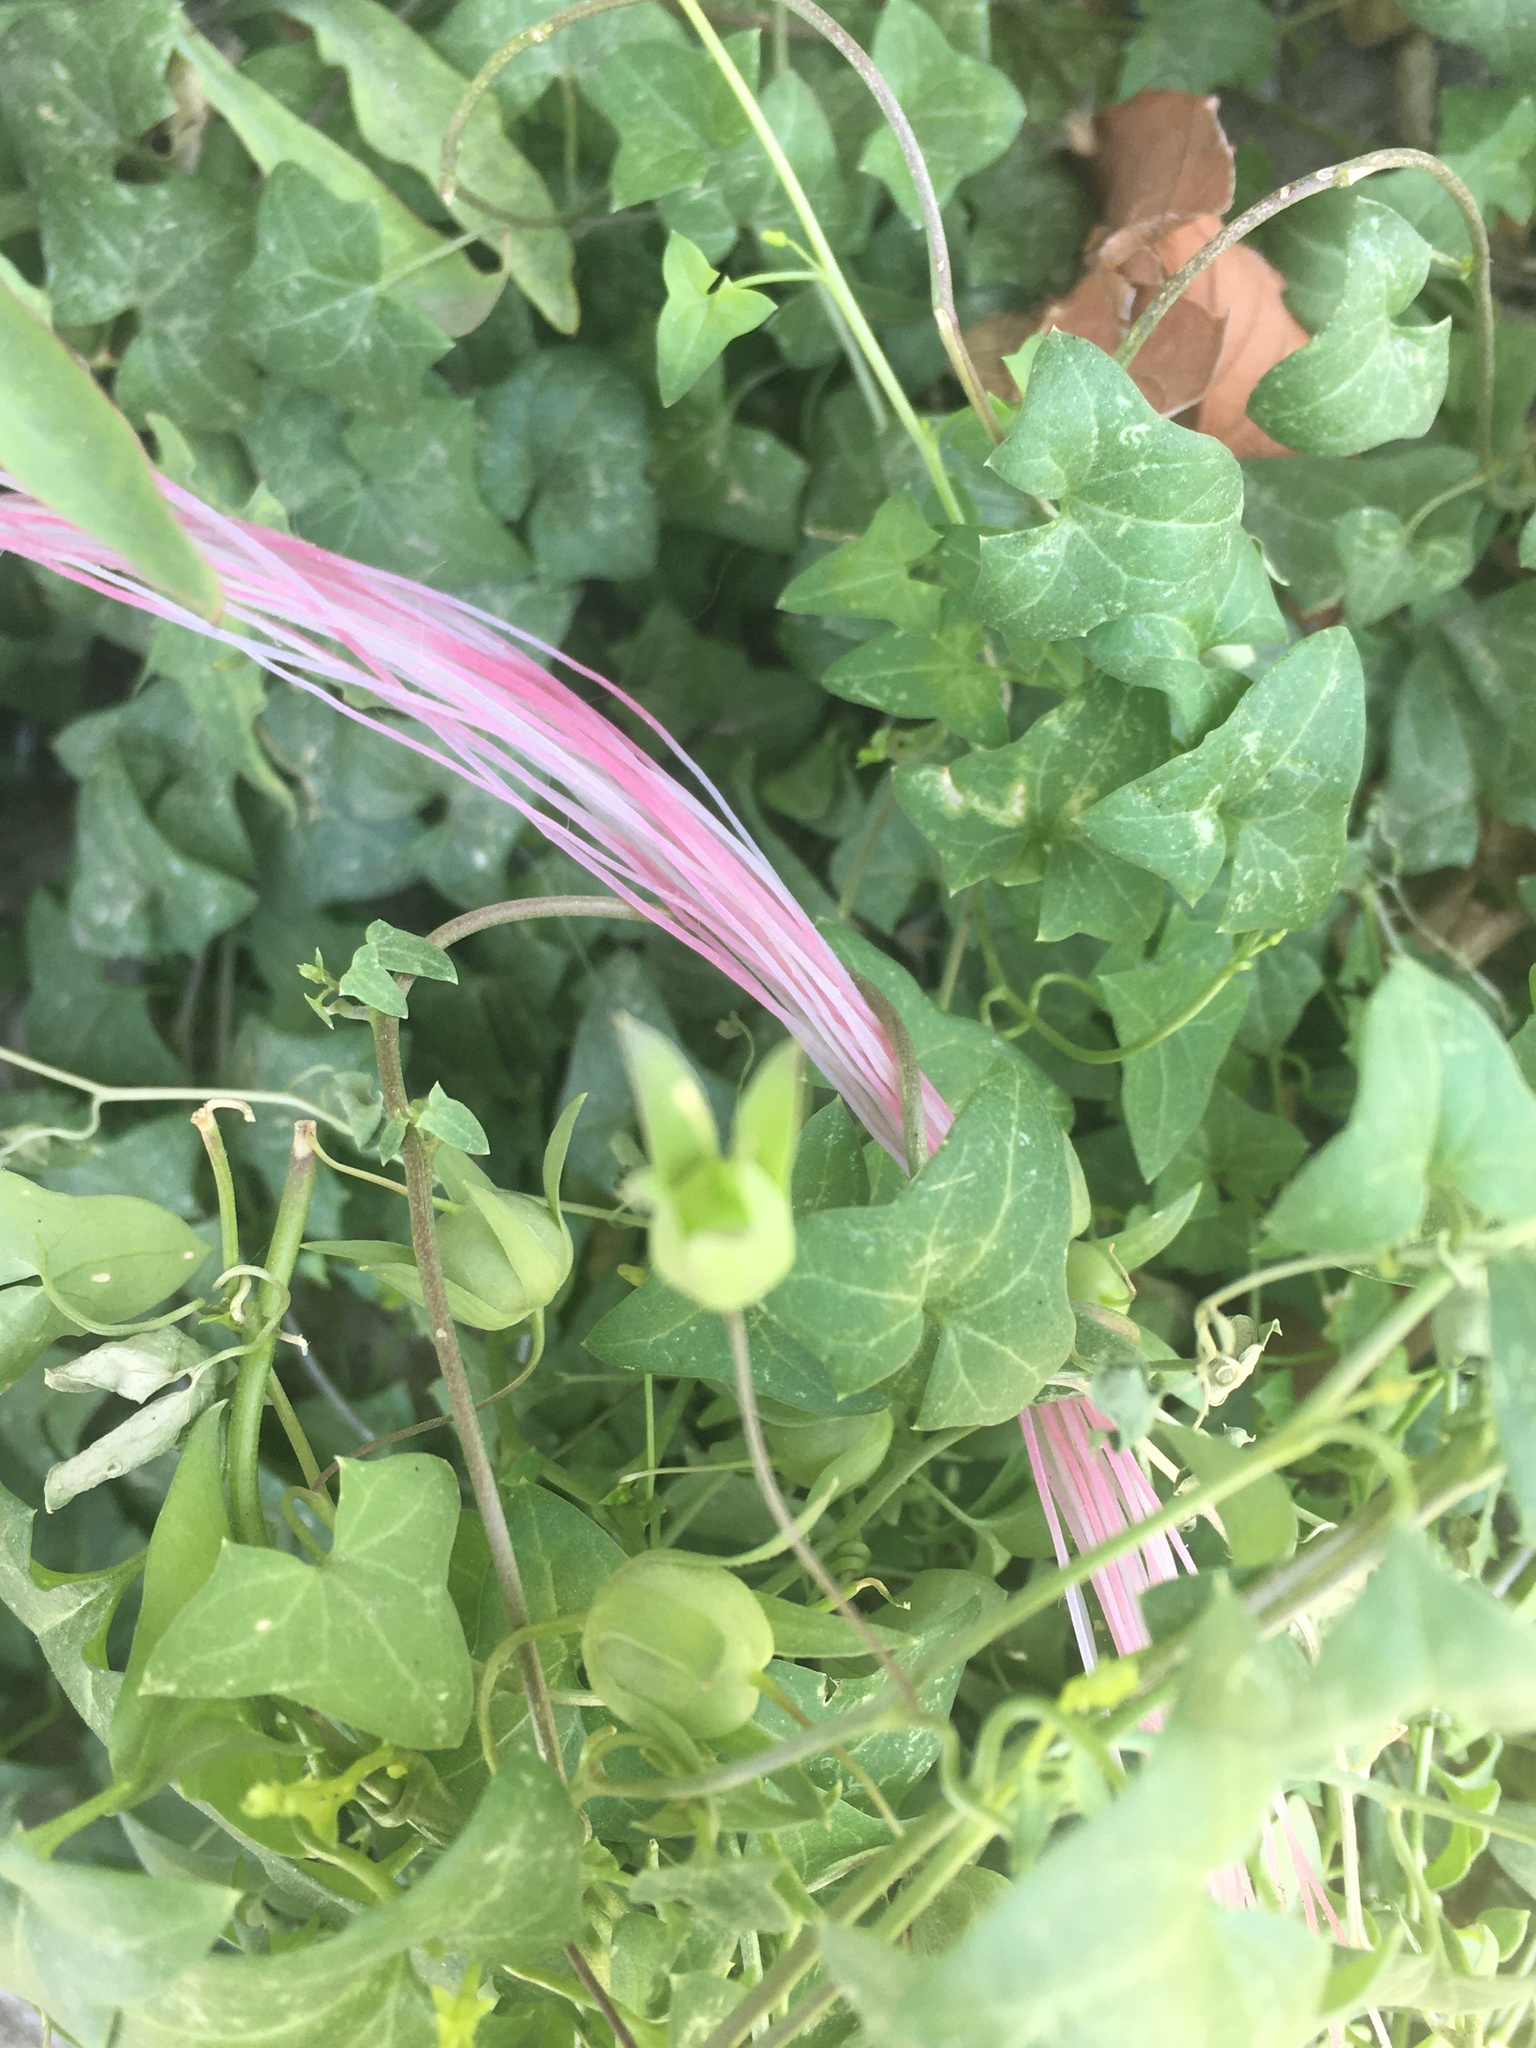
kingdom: Plantae
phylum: Tracheophyta
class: Magnoliopsida
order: Lamiales
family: Plantaginaceae
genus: Maurandella
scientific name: Maurandella antirrhiniflora
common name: Violet twining-snapdragon
